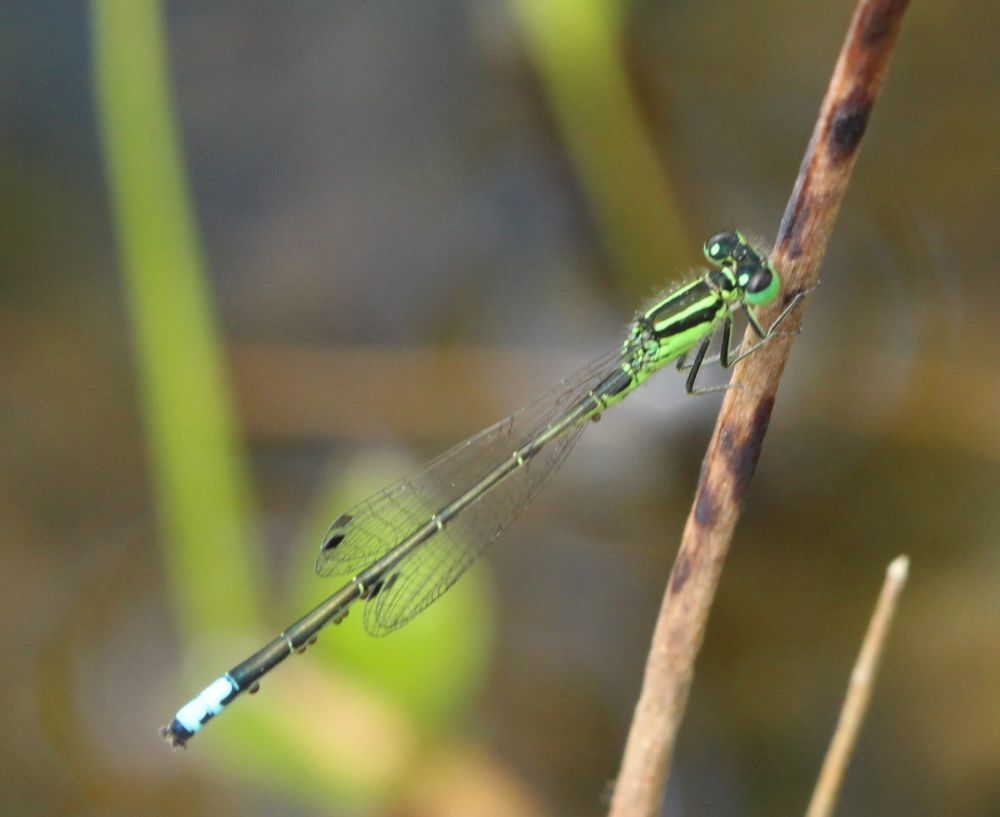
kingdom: Animalia
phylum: Arthropoda
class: Insecta
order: Odonata
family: Coenagrionidae
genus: Ischnura
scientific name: Ischnura verticalis
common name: Eastern forktail
